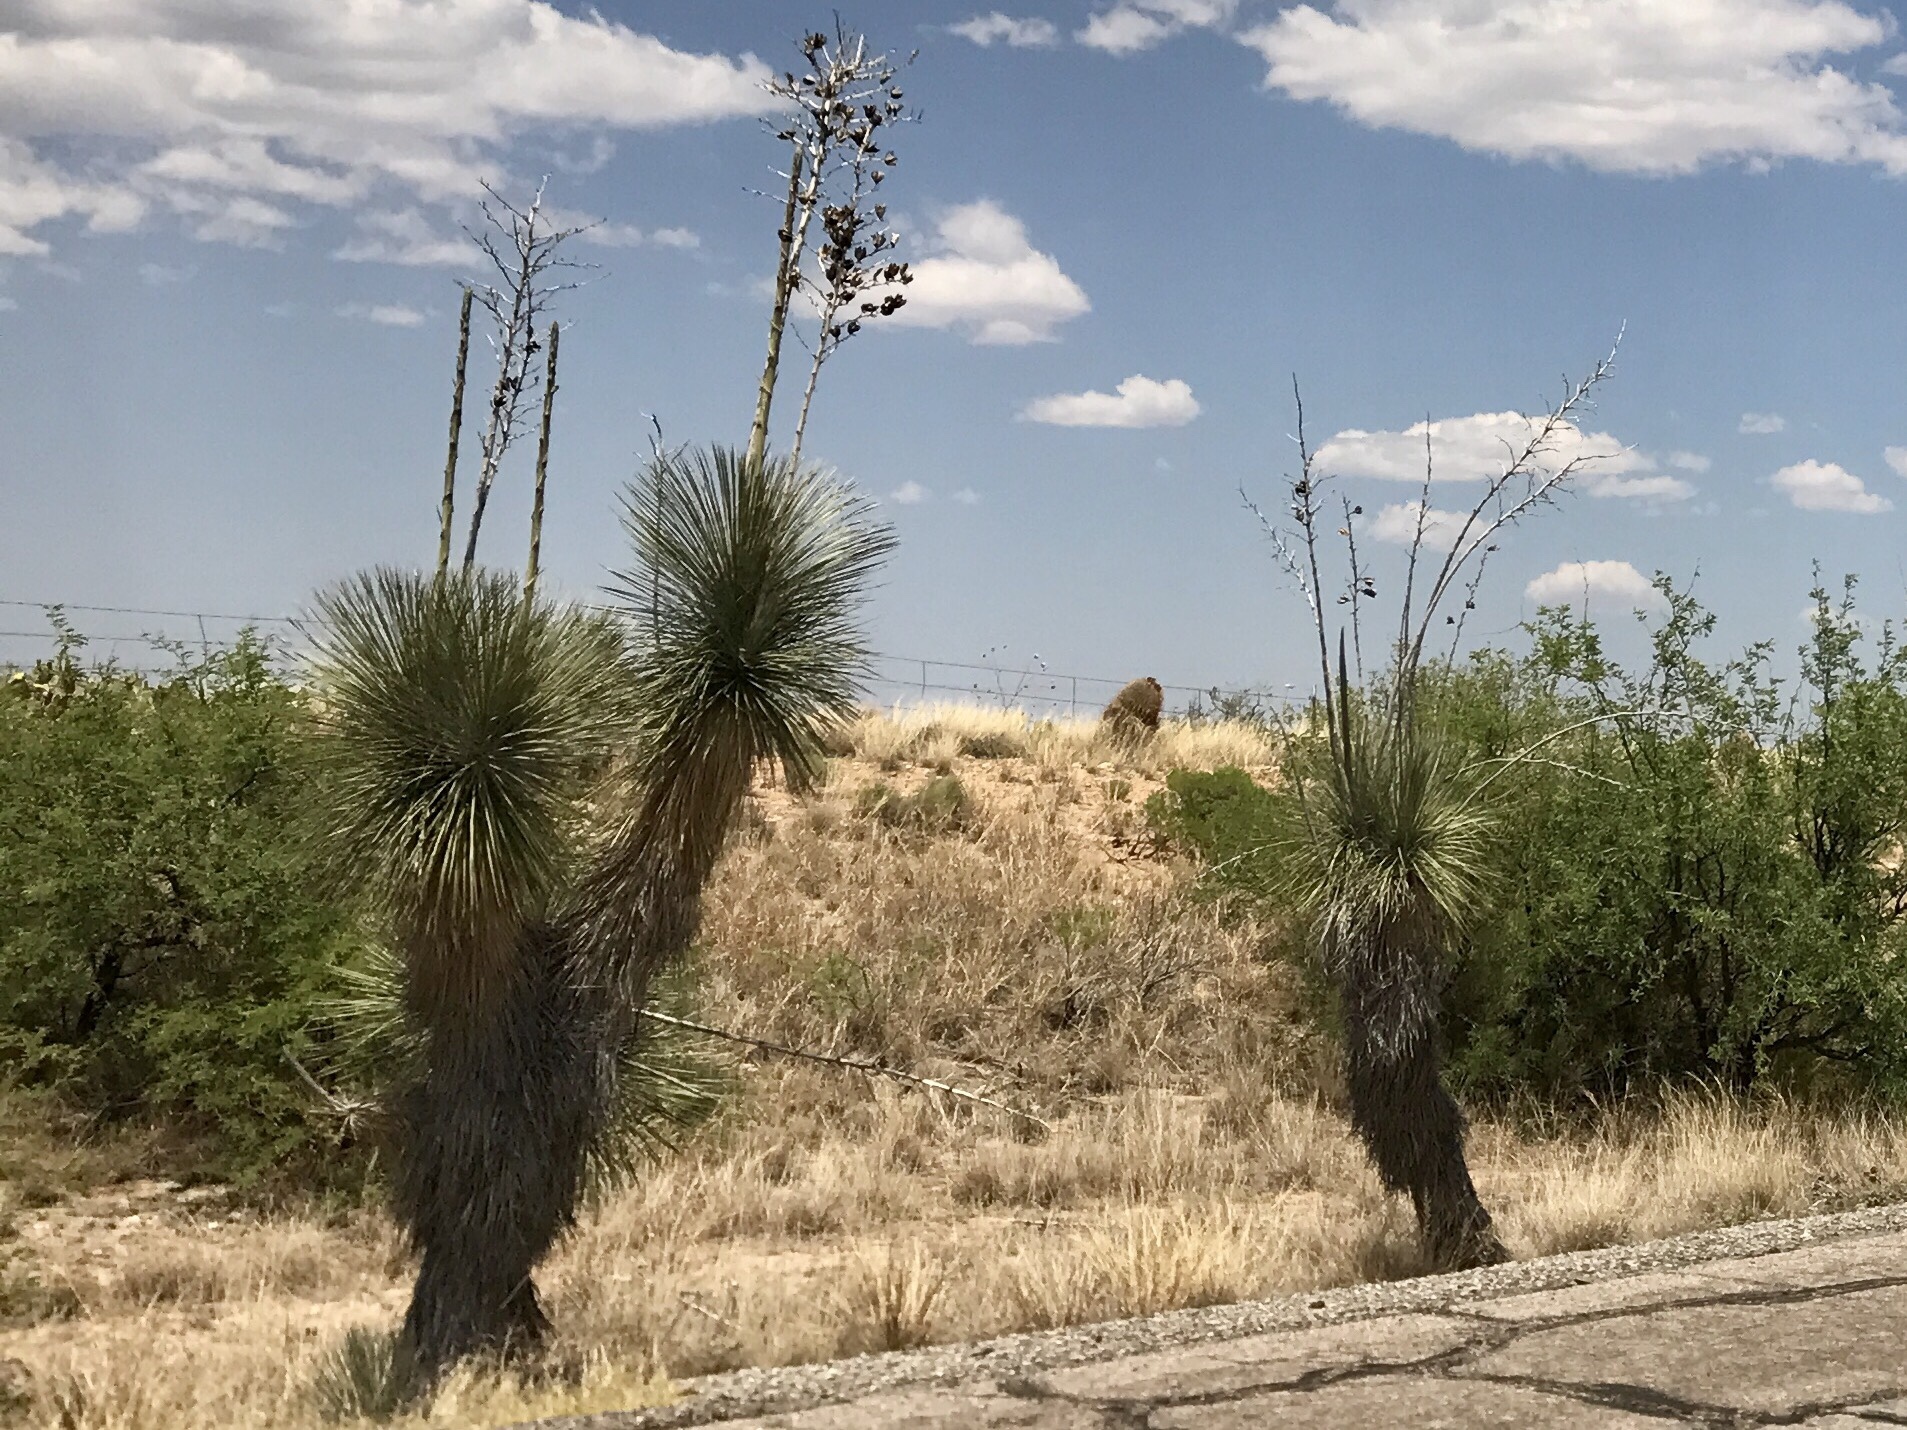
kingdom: Plantae
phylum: Tracheophyta
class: Liliopsida
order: Asparagales
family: Asparagaceae
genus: Yucca
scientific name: Yucca elata
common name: Palmella
